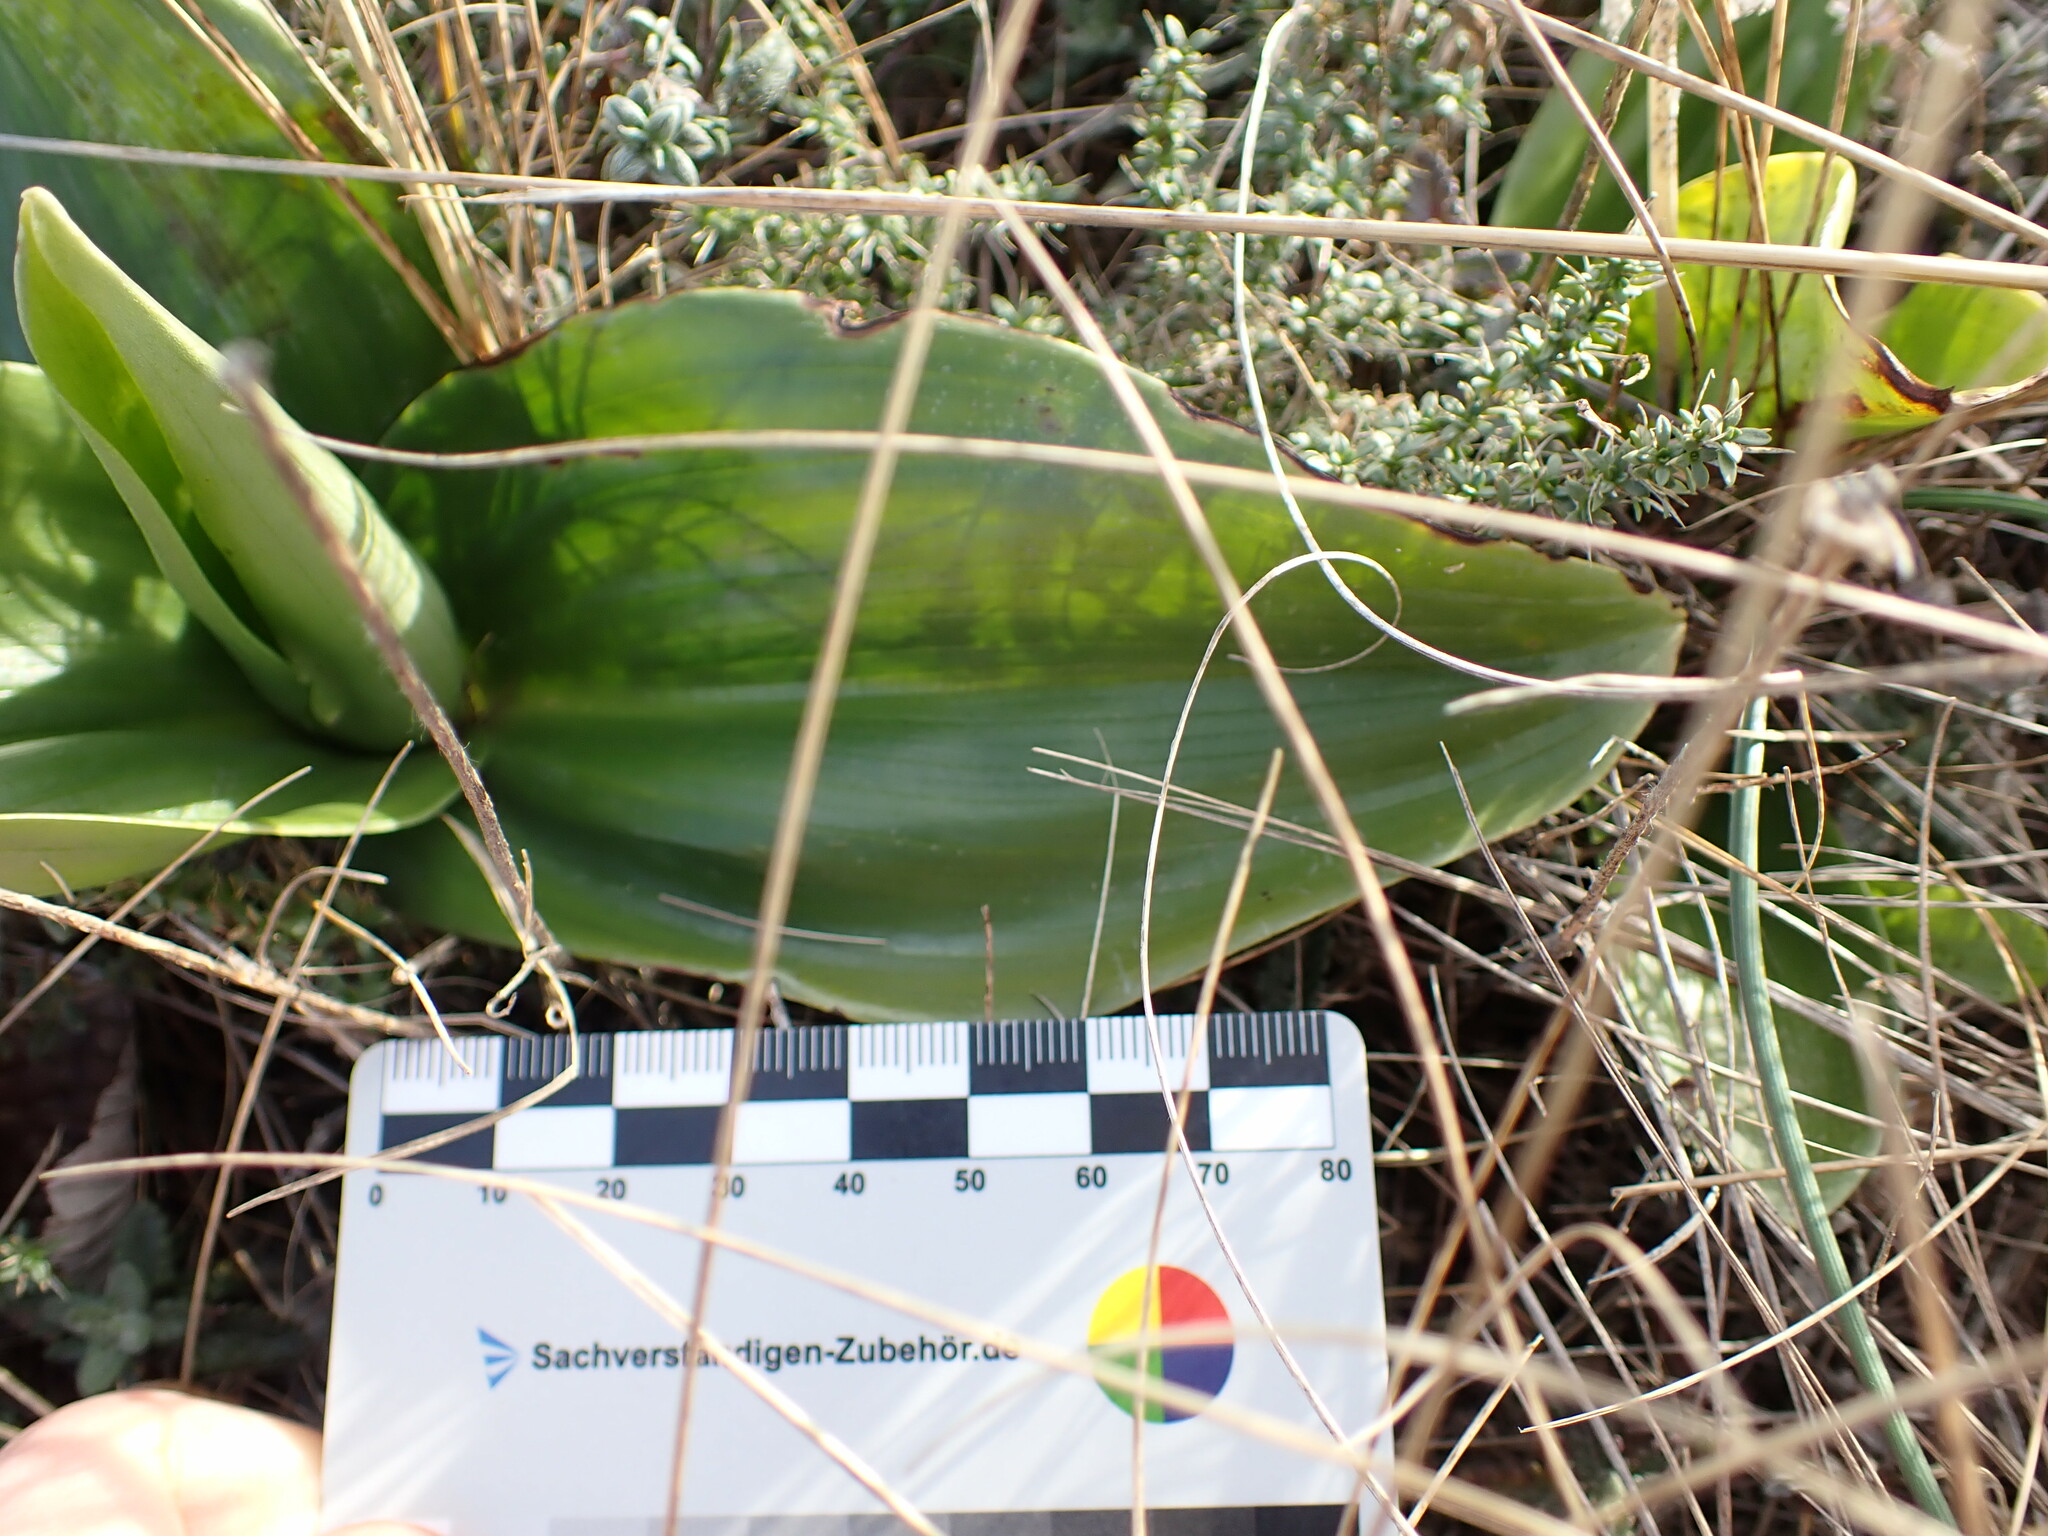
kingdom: Plantae
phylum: Tracheophyta
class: Liliopsida
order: Asparagales
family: Orchidaceae
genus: Himantoglossum
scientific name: Himantoglossum robertianum
